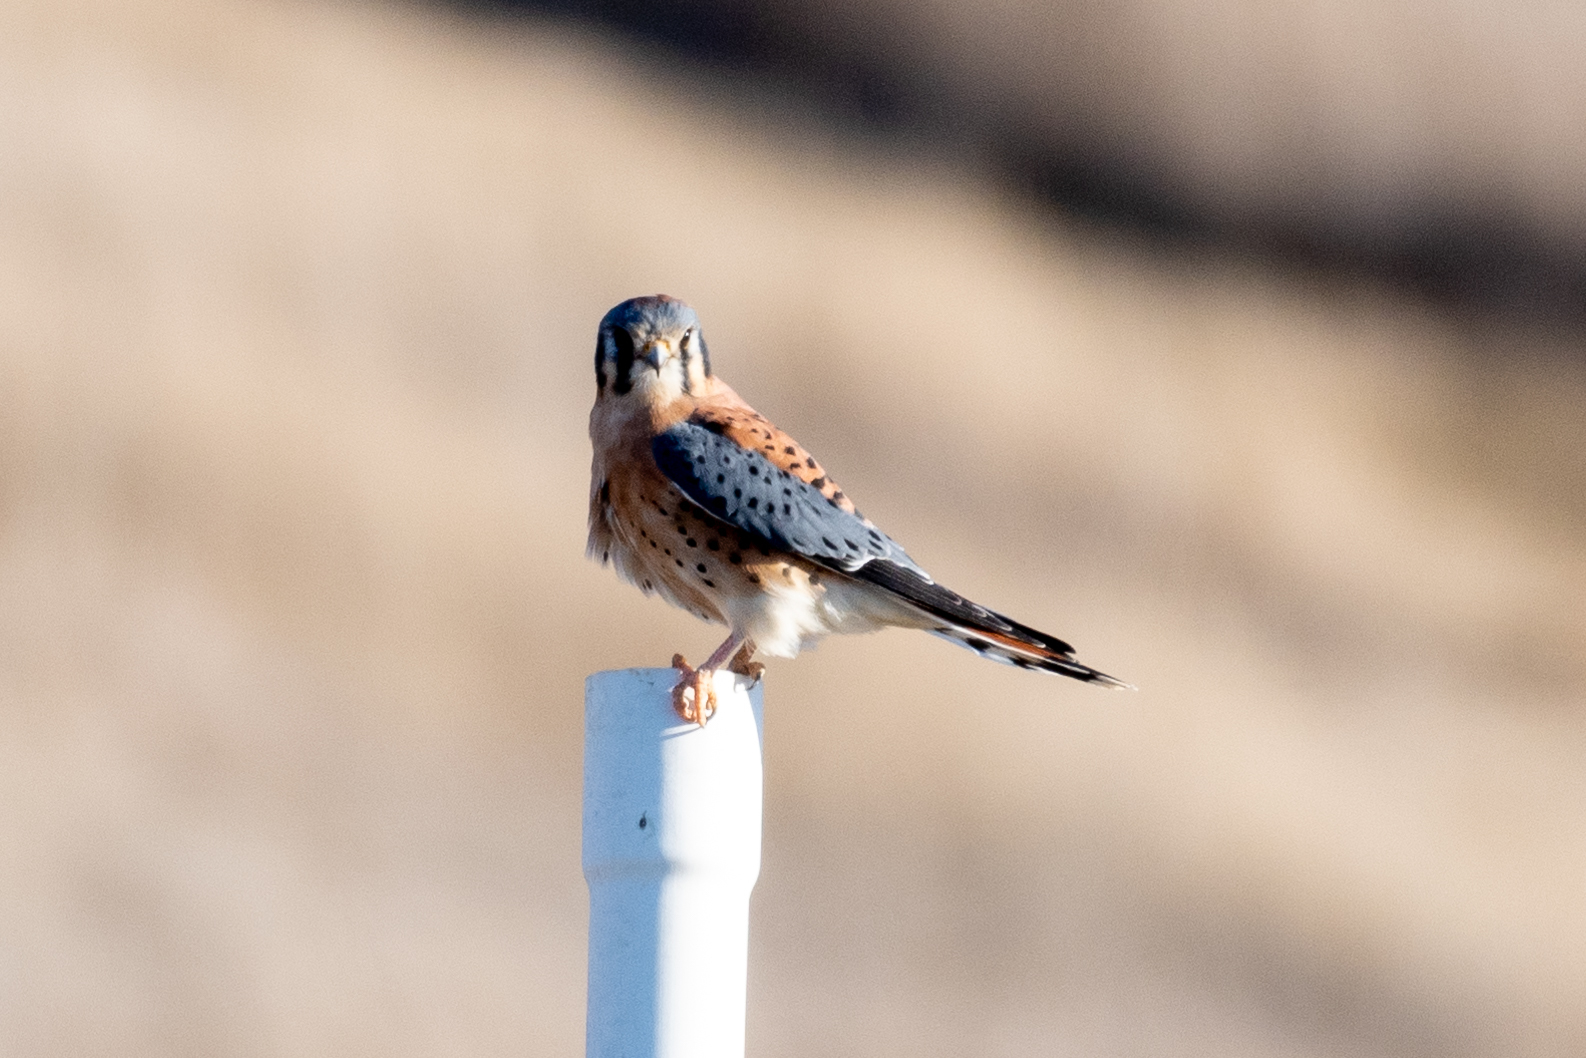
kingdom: Animalia
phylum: Chordata
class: Aves
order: Falconiformes
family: Falconidae
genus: Falco
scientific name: Falco sparverius
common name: American kestrel
